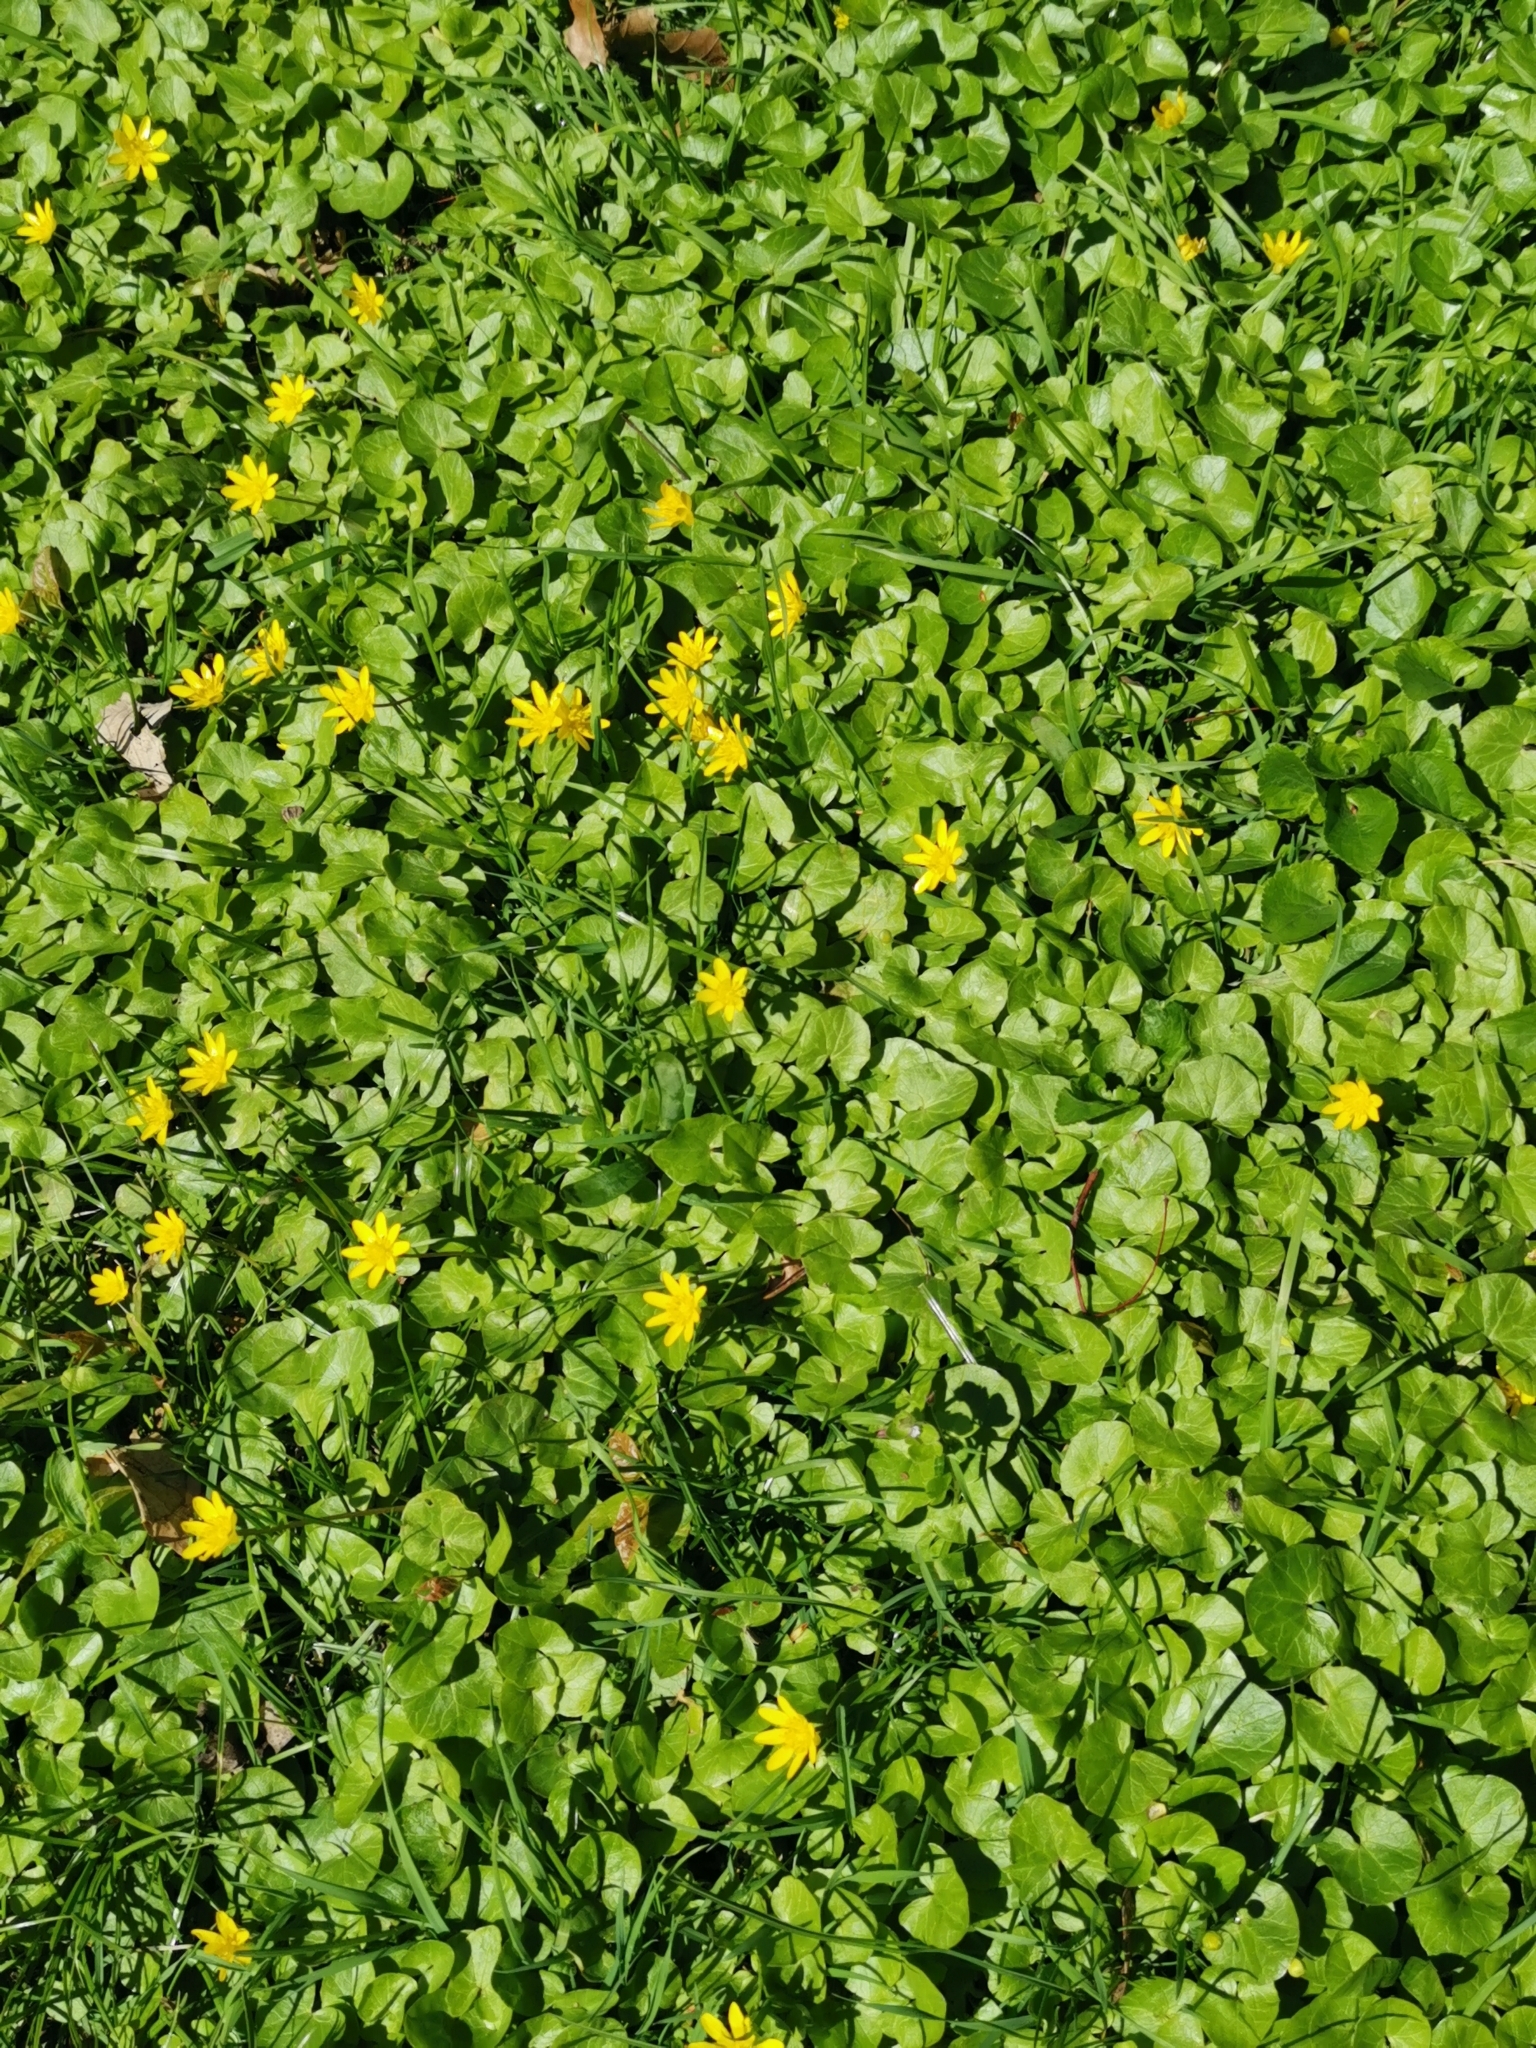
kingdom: Plantae
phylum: Tracheophyta
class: Magnoliopsida
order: Ranunculales
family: Ranunculaceae
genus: Ficaria
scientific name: Ficaria verna
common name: Lesser celandine
